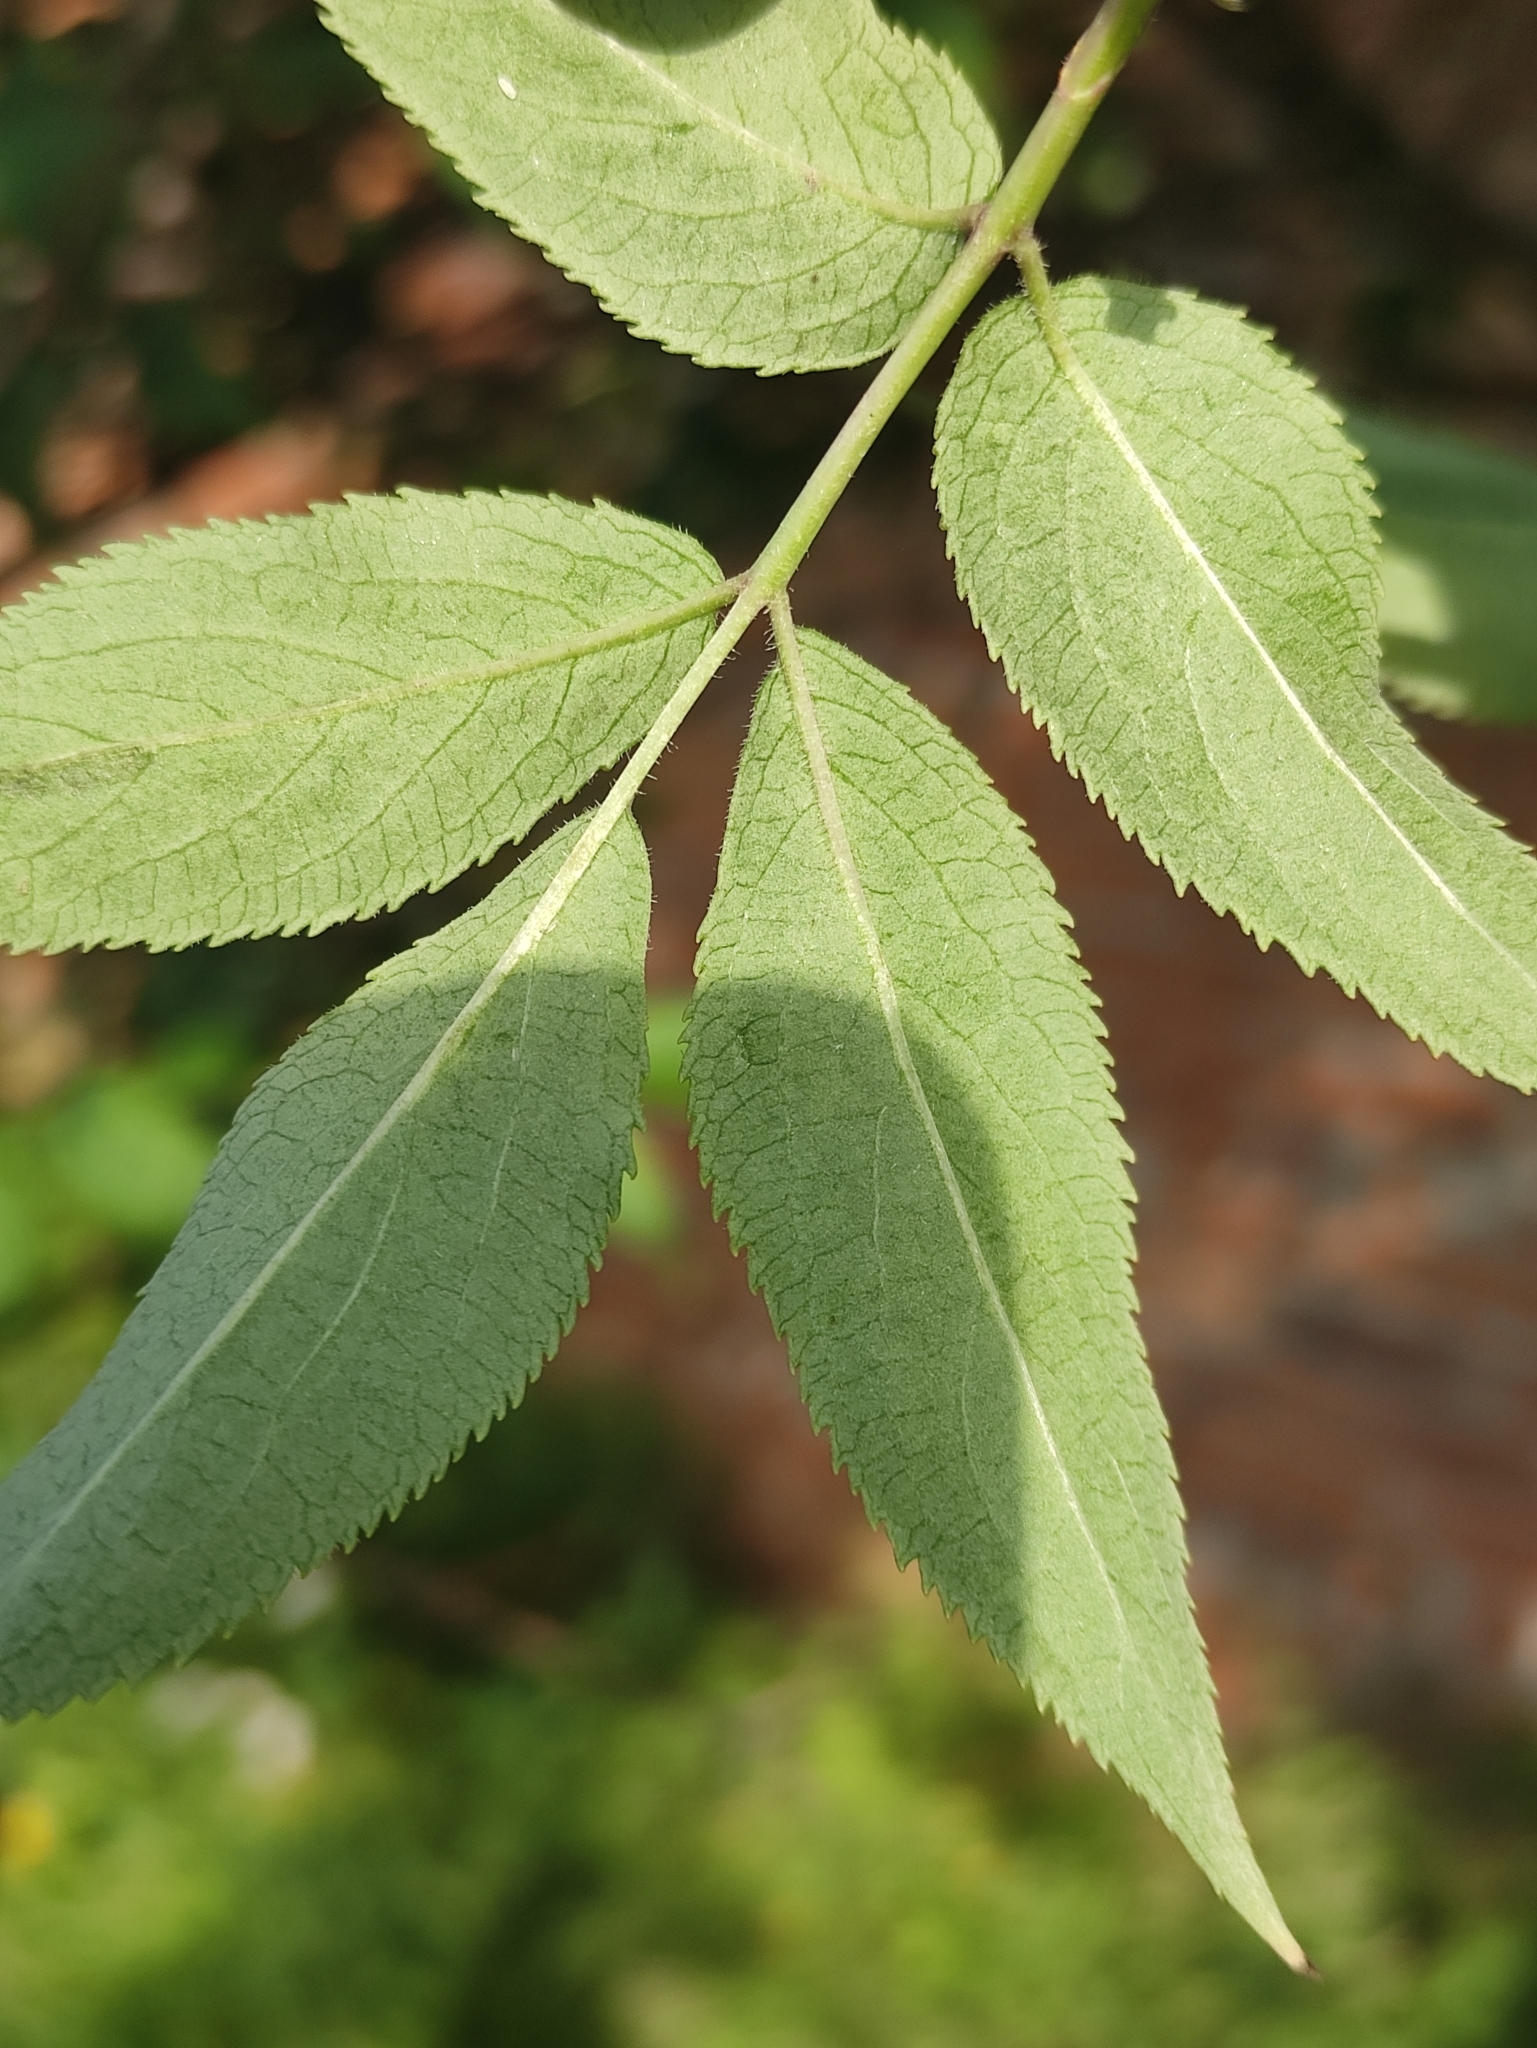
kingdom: Plantae
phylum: Tracheophyta
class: Magnoliopsida
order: Dipsacales
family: Viburnaceae
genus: Sambucus
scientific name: Sambucus sibirica
